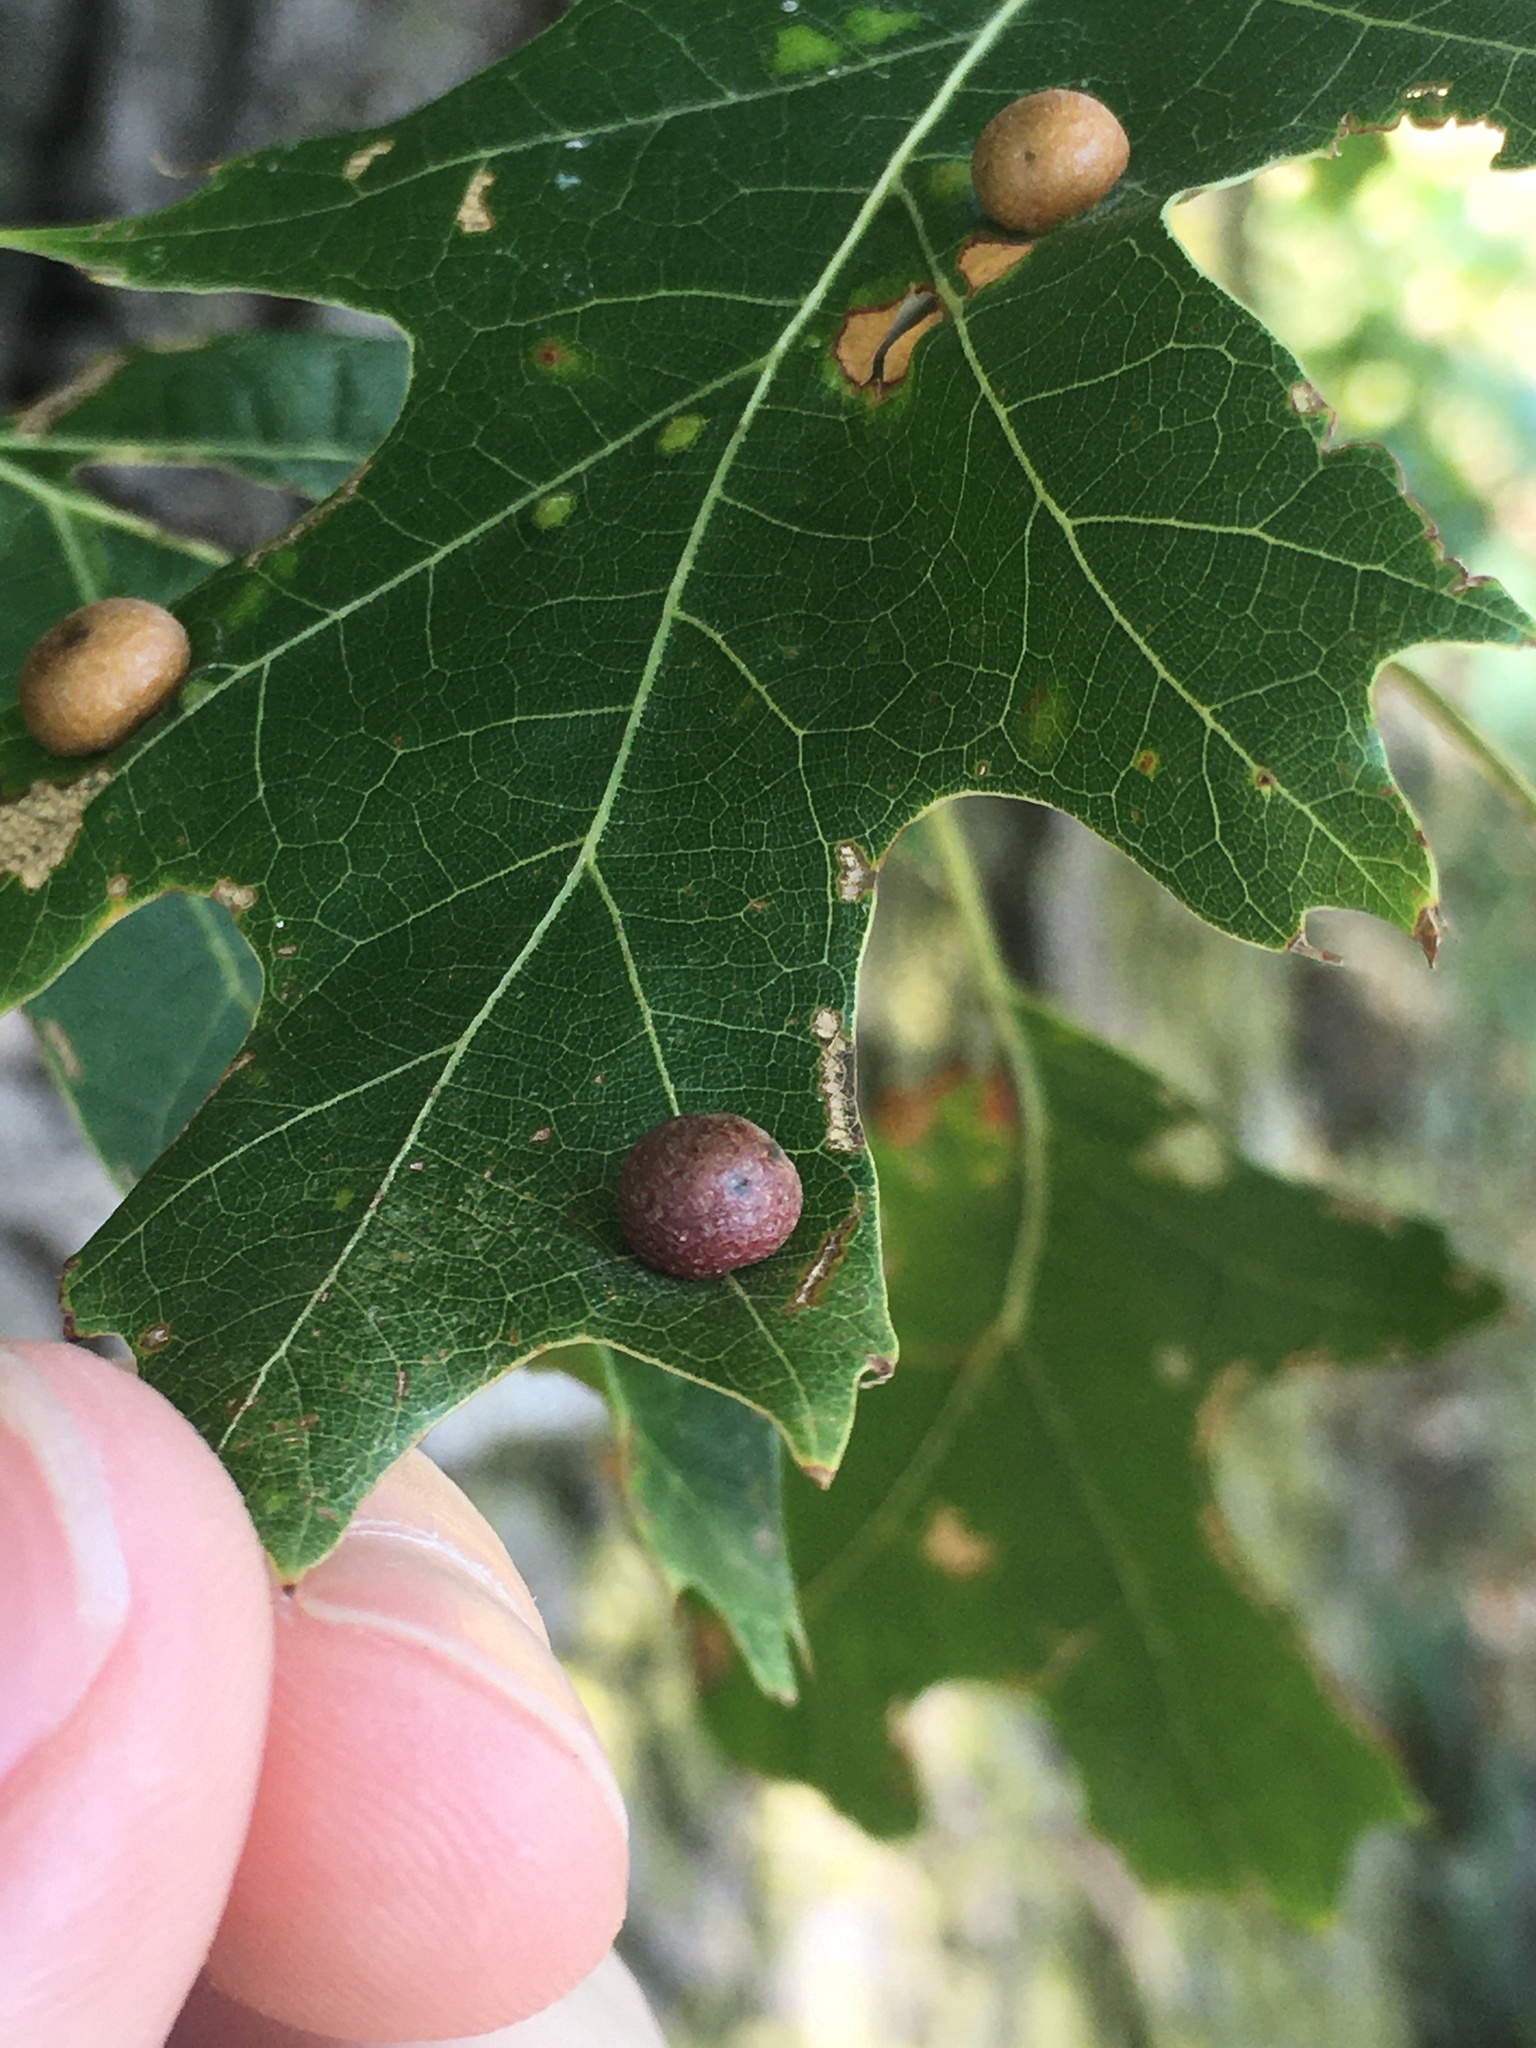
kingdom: Animalia
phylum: Arthropoda
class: Insecta
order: Diptera
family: Cecidomyiidae
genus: Polystepha
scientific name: Polystepha pilulae
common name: Oak leaf gall midge
